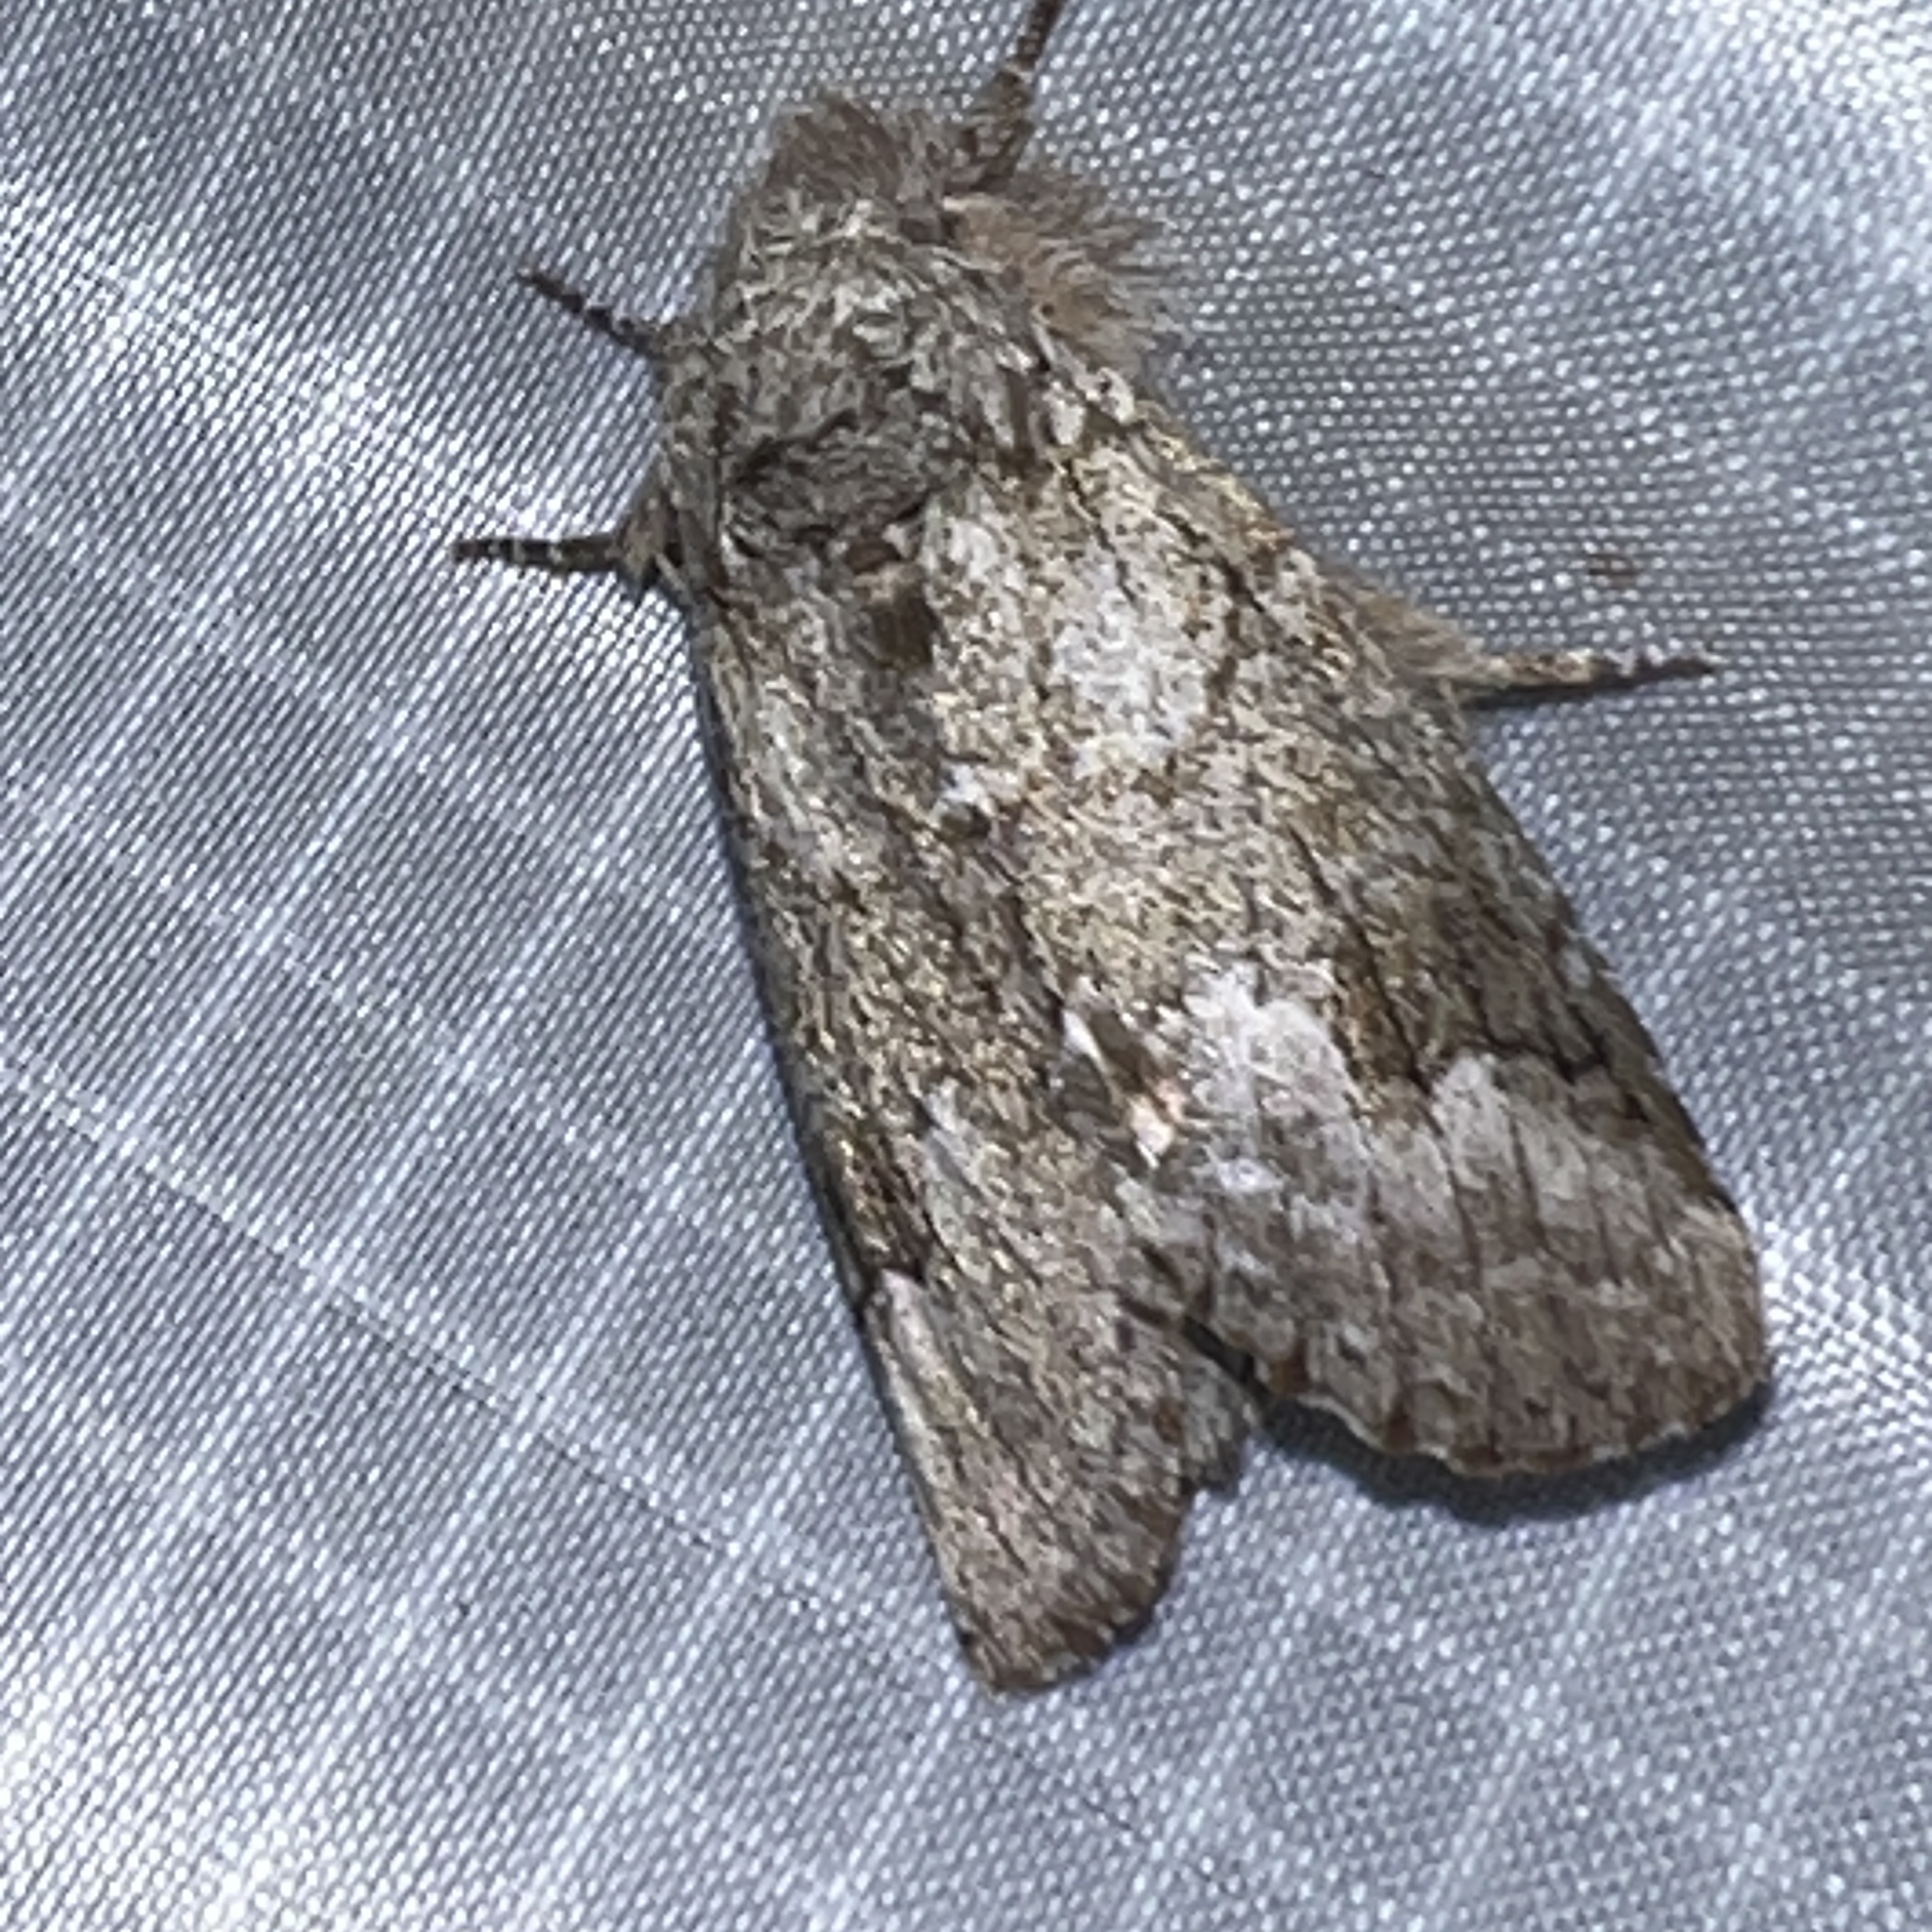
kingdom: Animalia
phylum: Arthropoda
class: Insecta
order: Lepidoptera
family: Notodontidae
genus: Lochmaeus
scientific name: Lochmaeus bilineata
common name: Double-lined prominent
